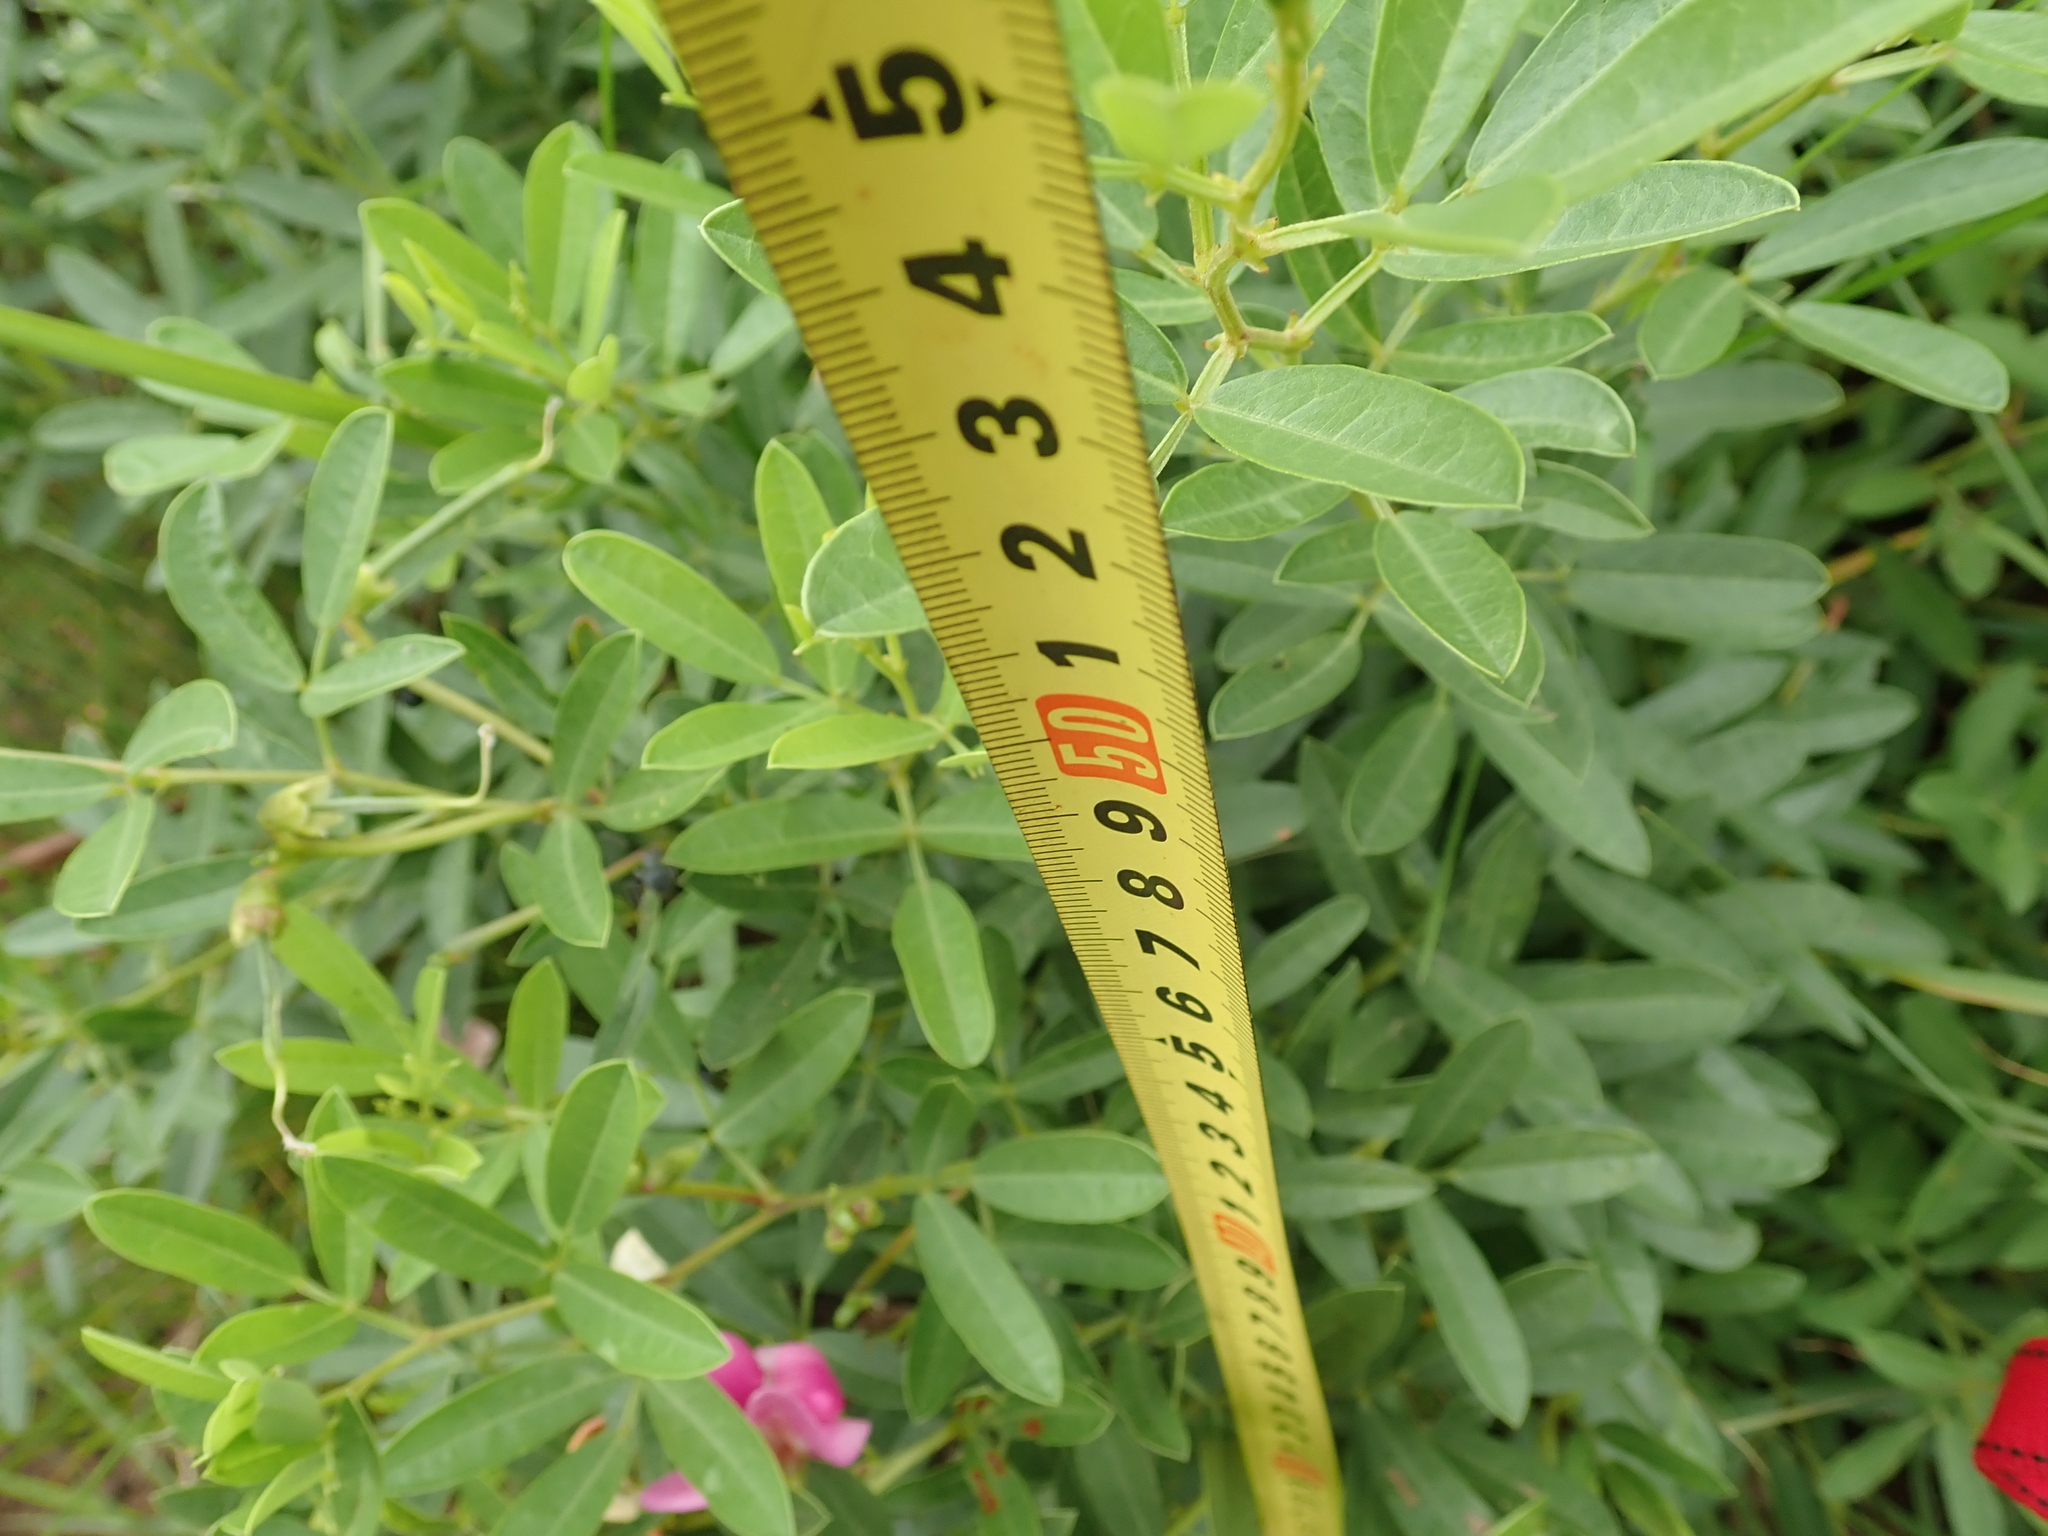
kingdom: Plantae
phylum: Tracheophyta
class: Magnoliopsida
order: Fabales
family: Fabaceae
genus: Sphenostylis
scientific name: Sphenostylis angustifolia
